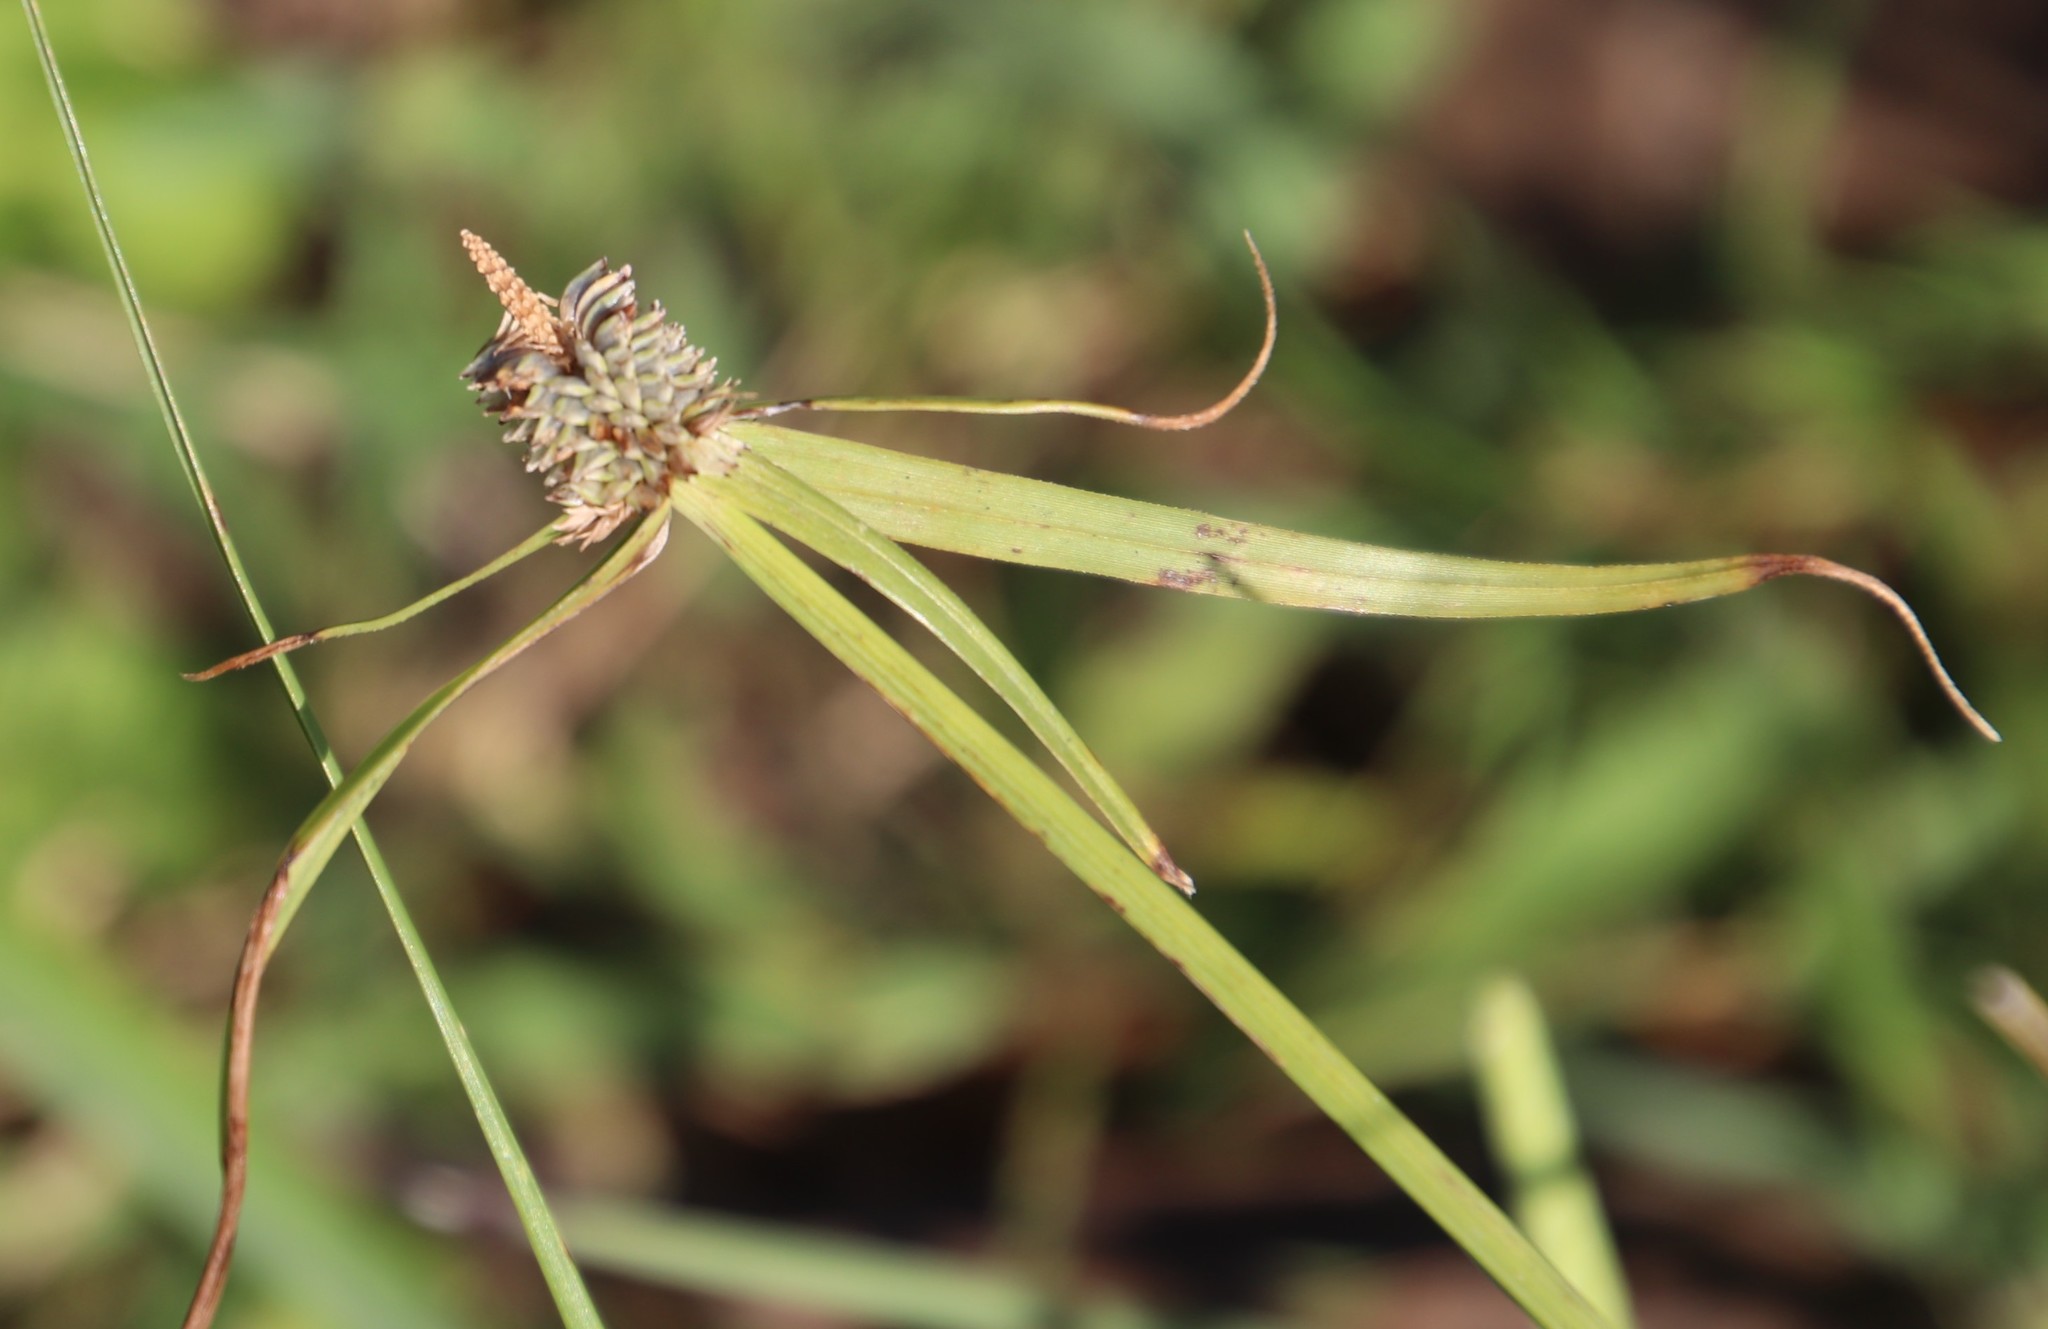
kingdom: Plantae
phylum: Tracheophyta
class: Liliopsida
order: Poales
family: Cyperaceae
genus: Cyperus
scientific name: Cyperus alatus
